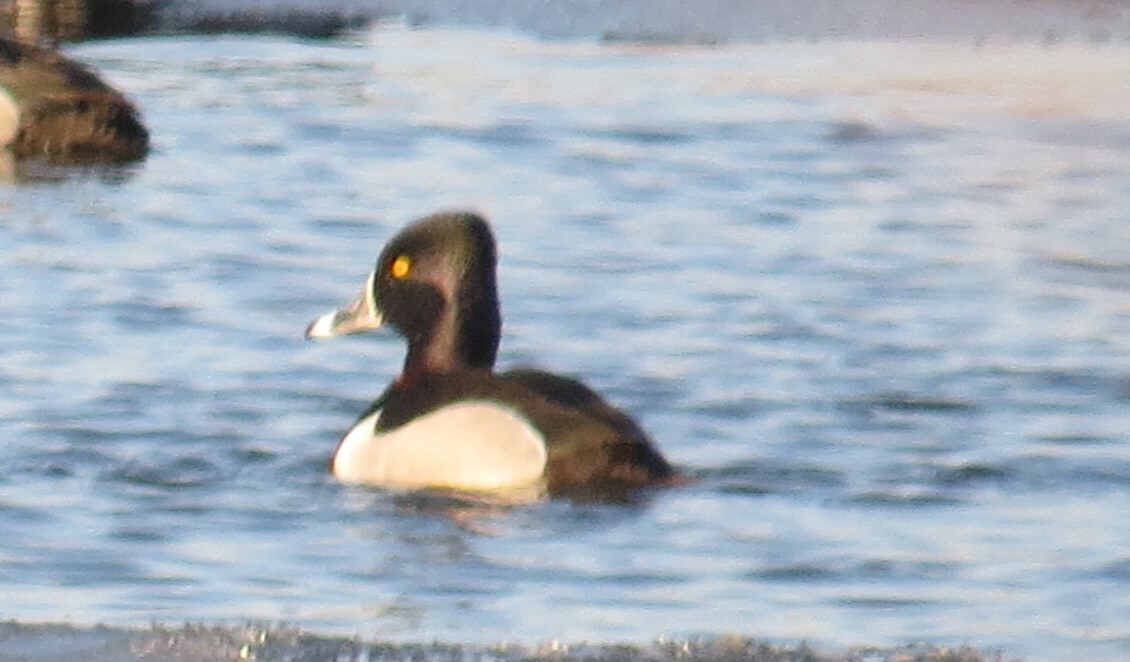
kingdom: Animalia
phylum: Chordata
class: Aves
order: Anseriformes
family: Anatidae
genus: Aythya
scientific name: Aythya collaris
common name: Ring-necked duck
